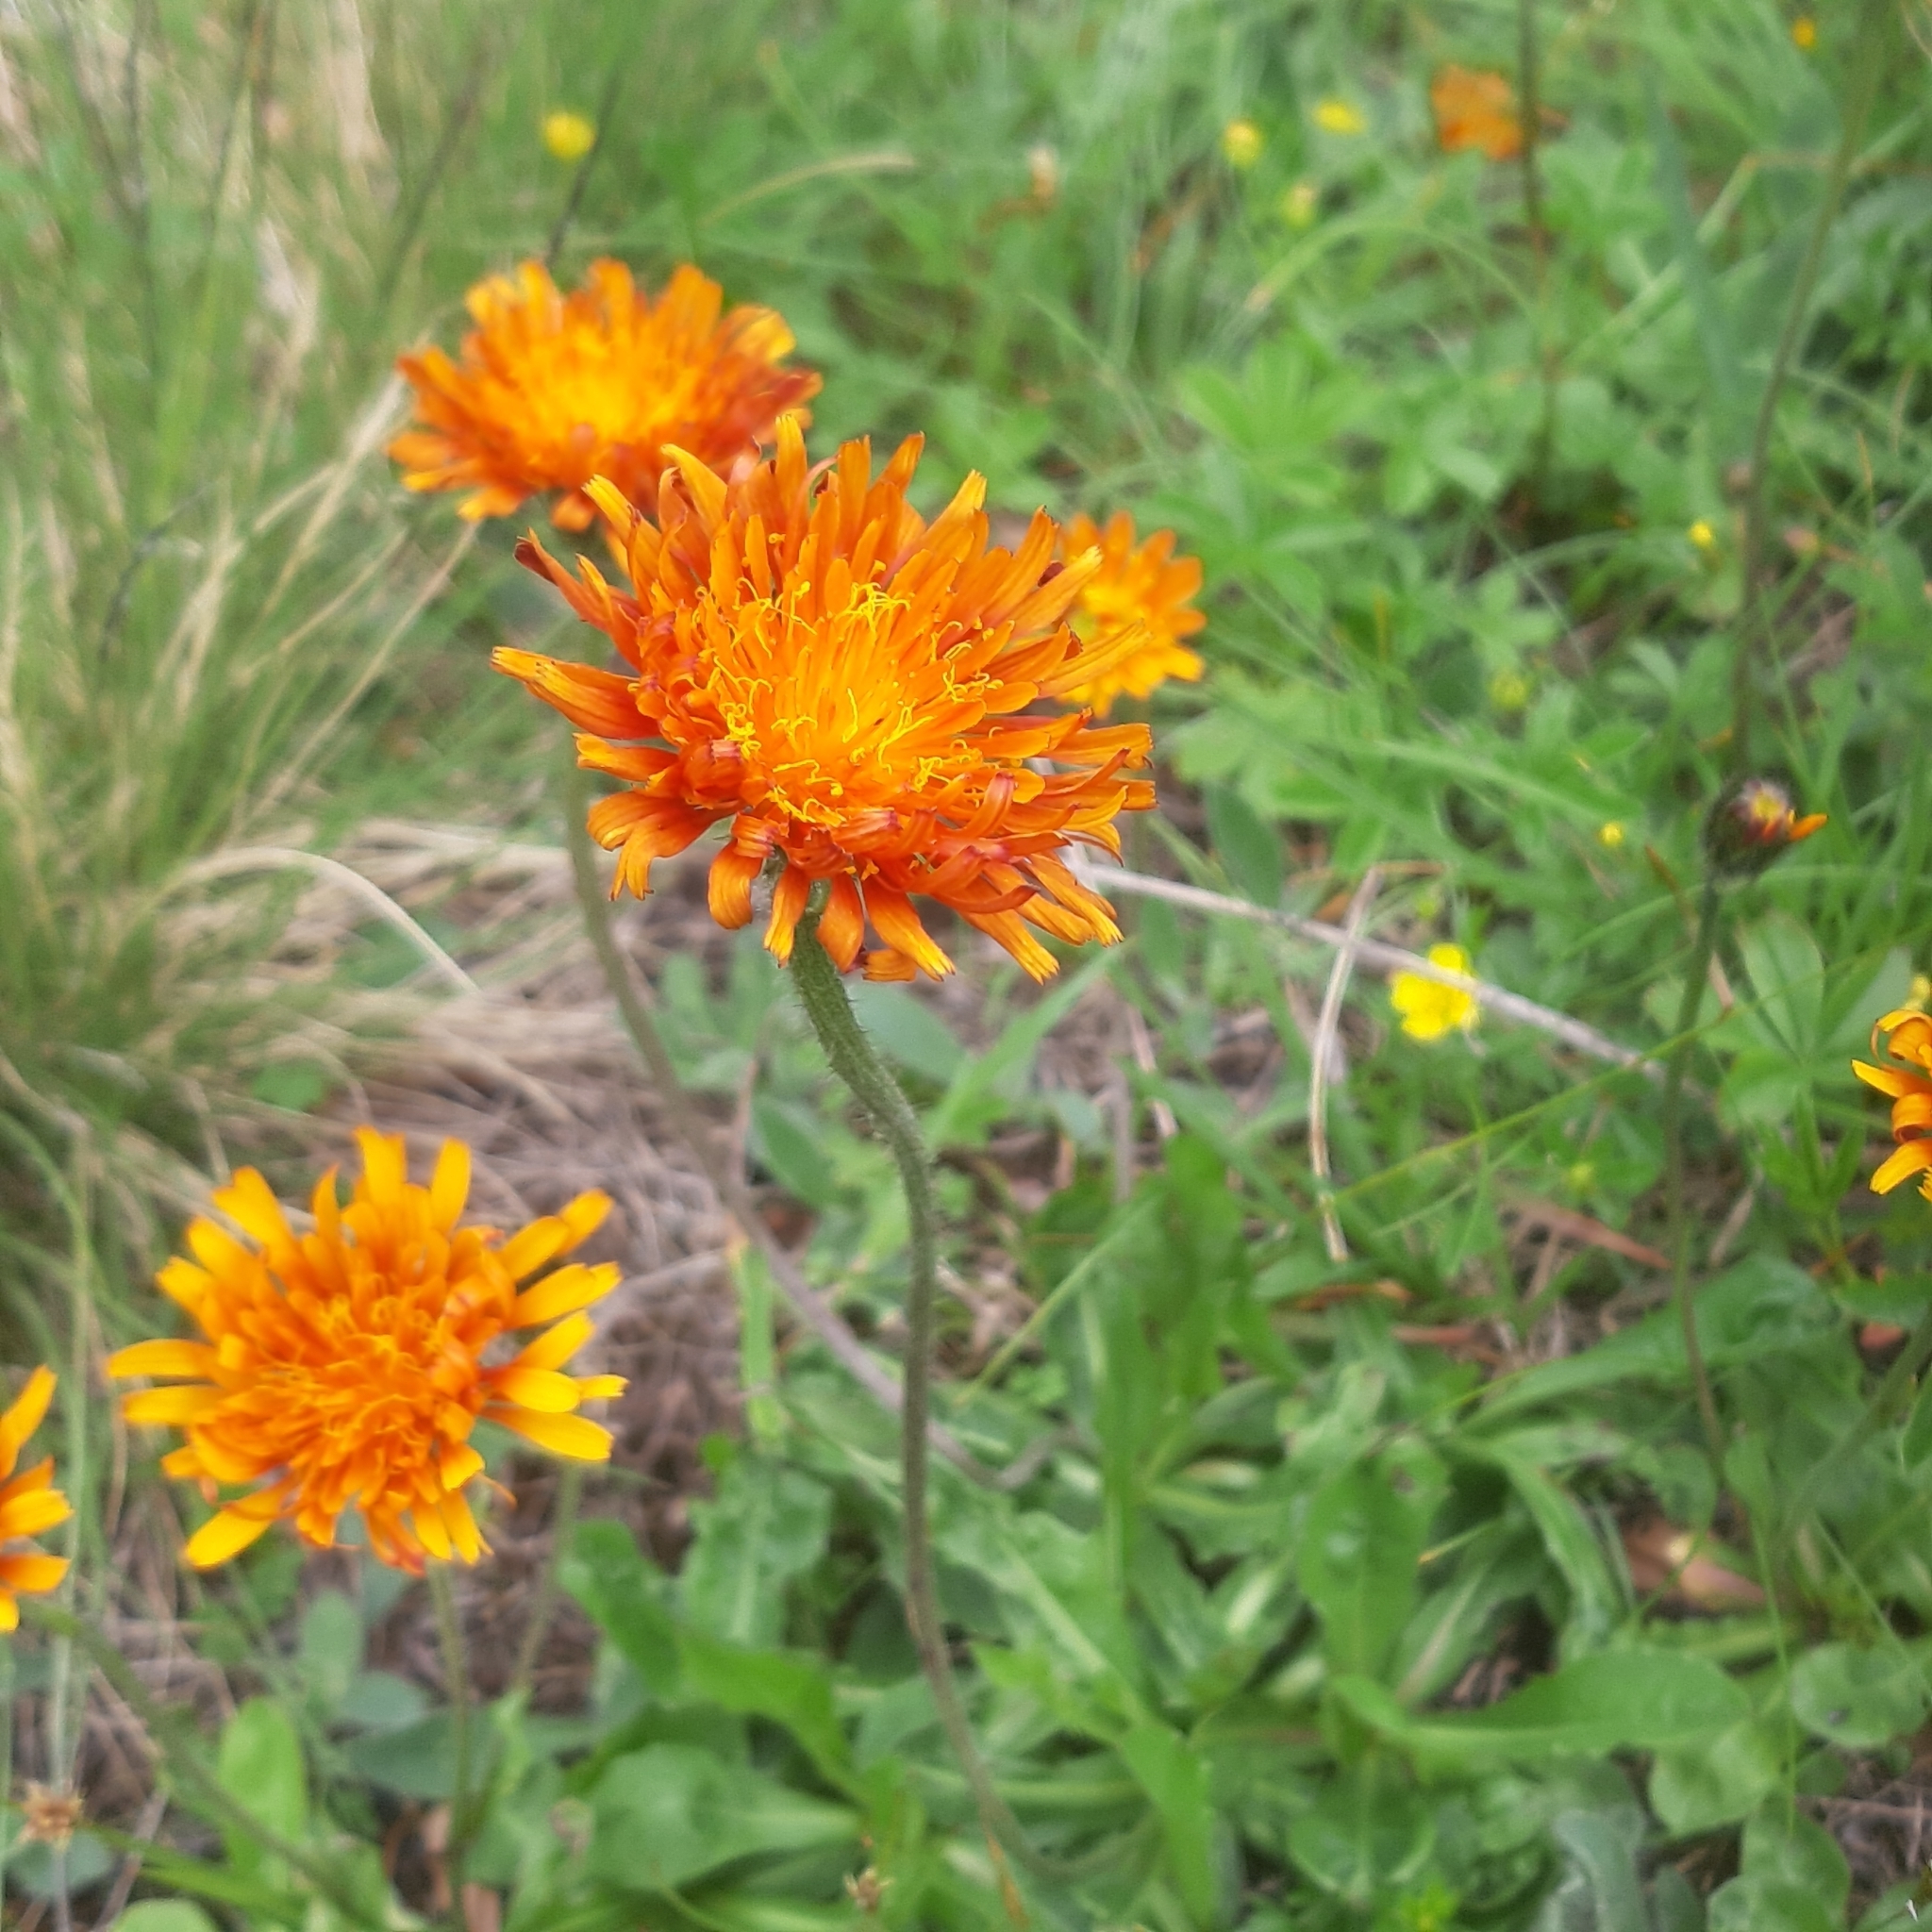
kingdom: Plantae
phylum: Tracheophyta
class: Magnoliopsida
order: Asterales
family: Asteraceae
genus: Crepis
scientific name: Crepis aurea
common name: Golden hawk's-beard
